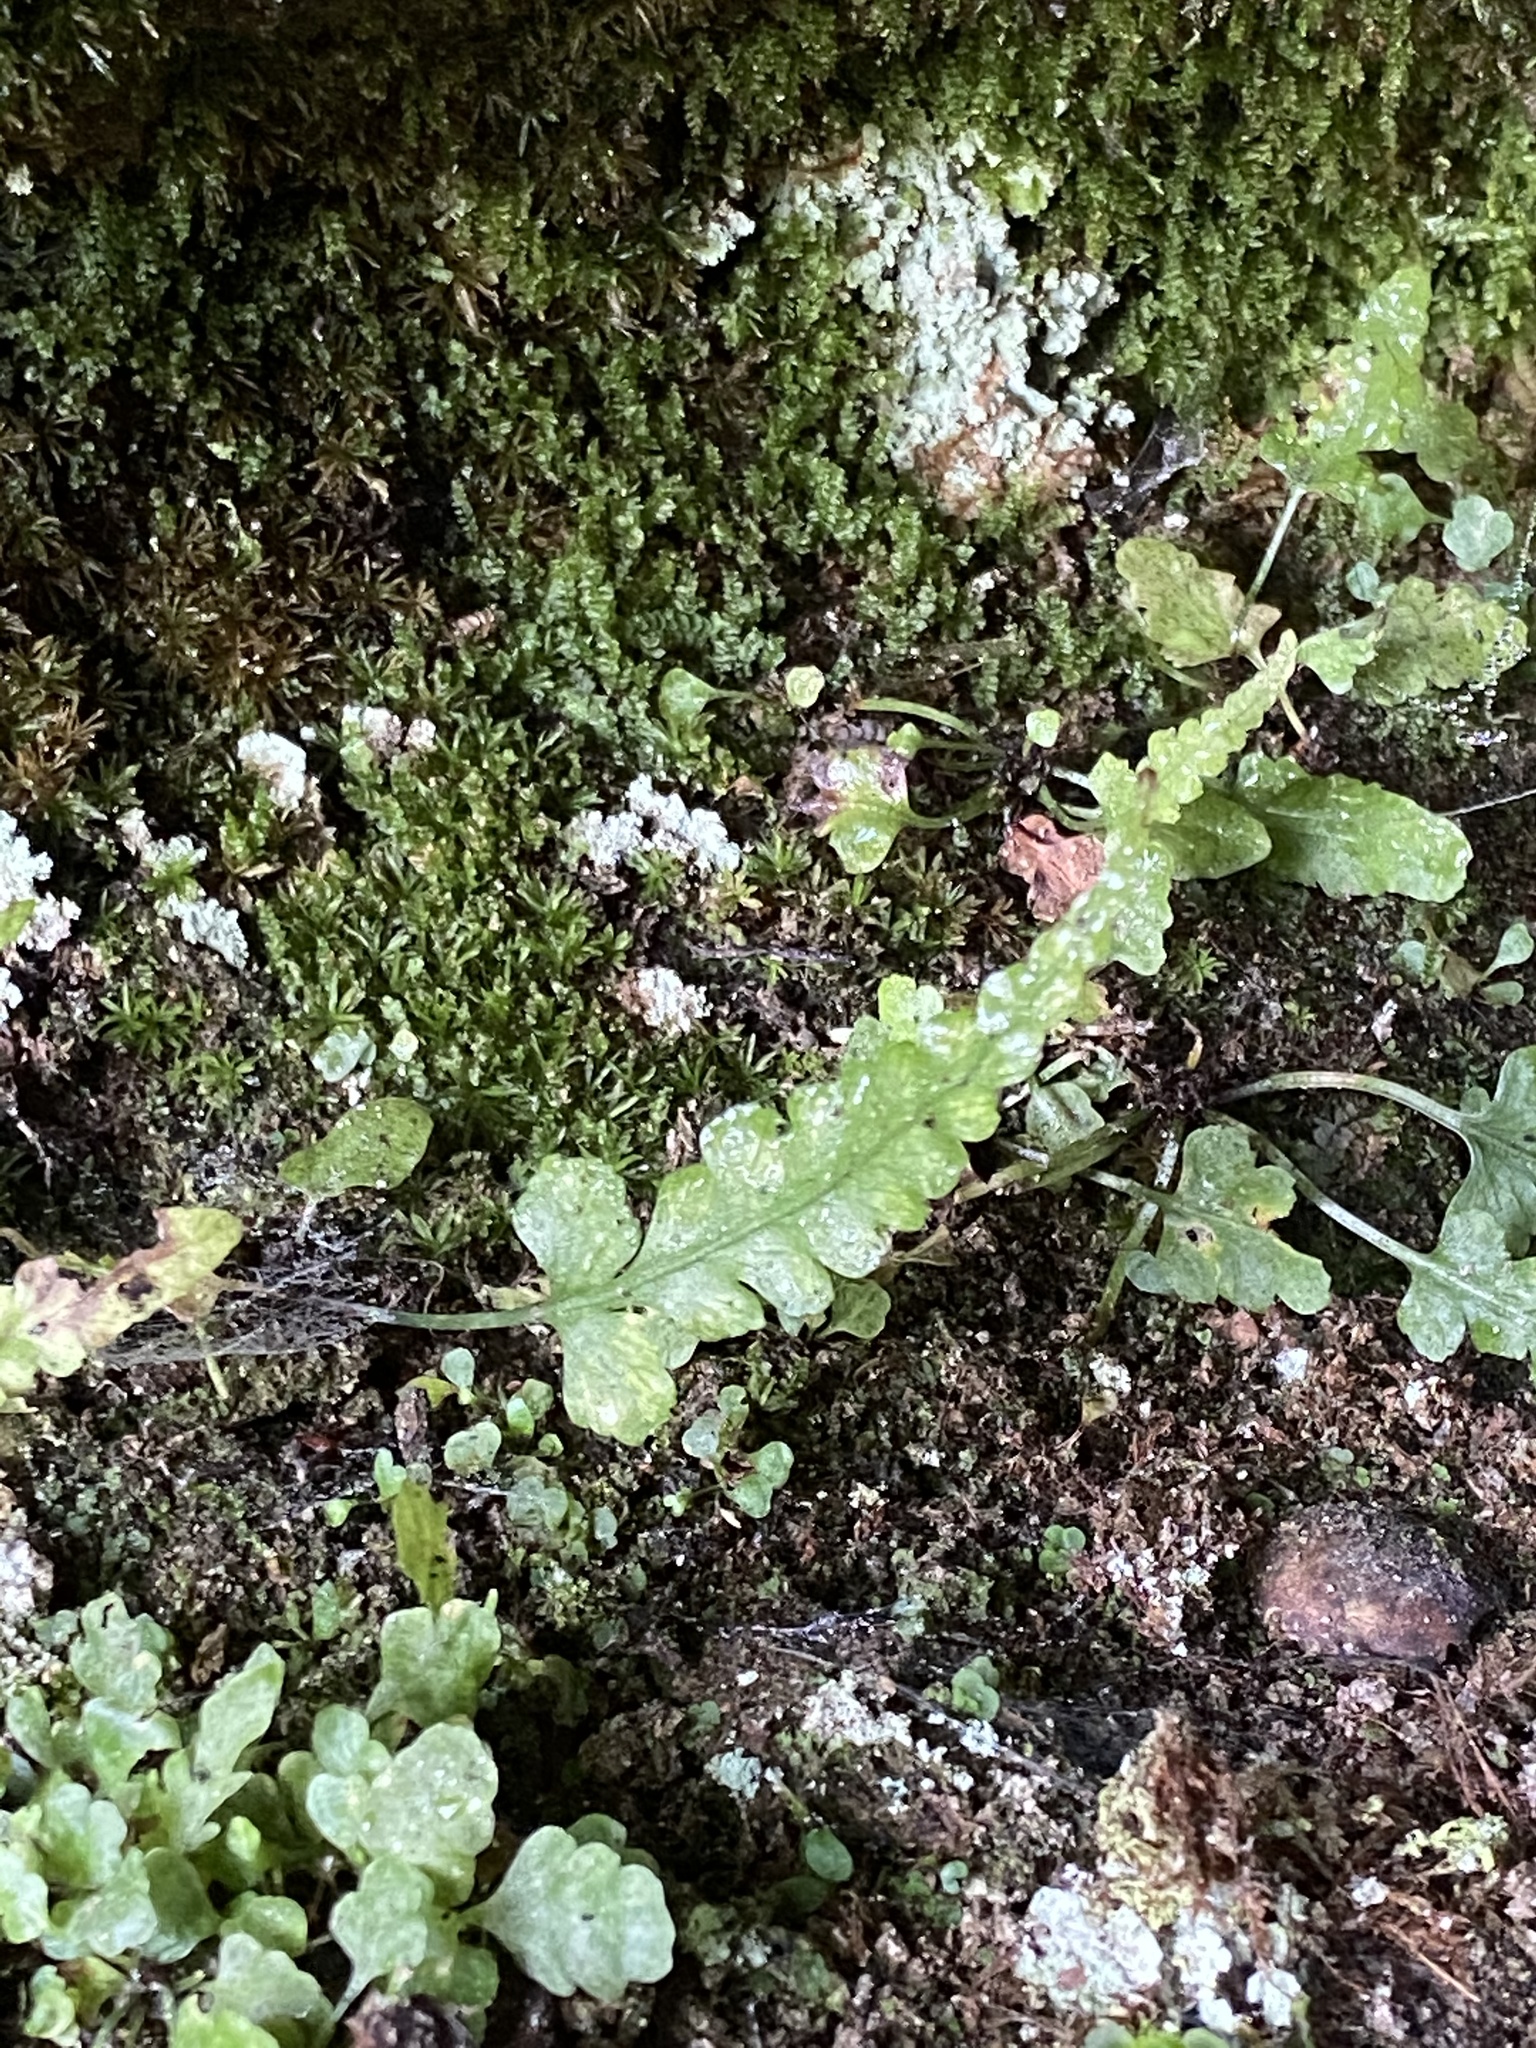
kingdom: Plantae
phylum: Tracheophyta
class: Polypodiopsida
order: Polypodiales
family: Aspleniaceae
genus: Asplenium
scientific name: Asplenium pinnatifidum
